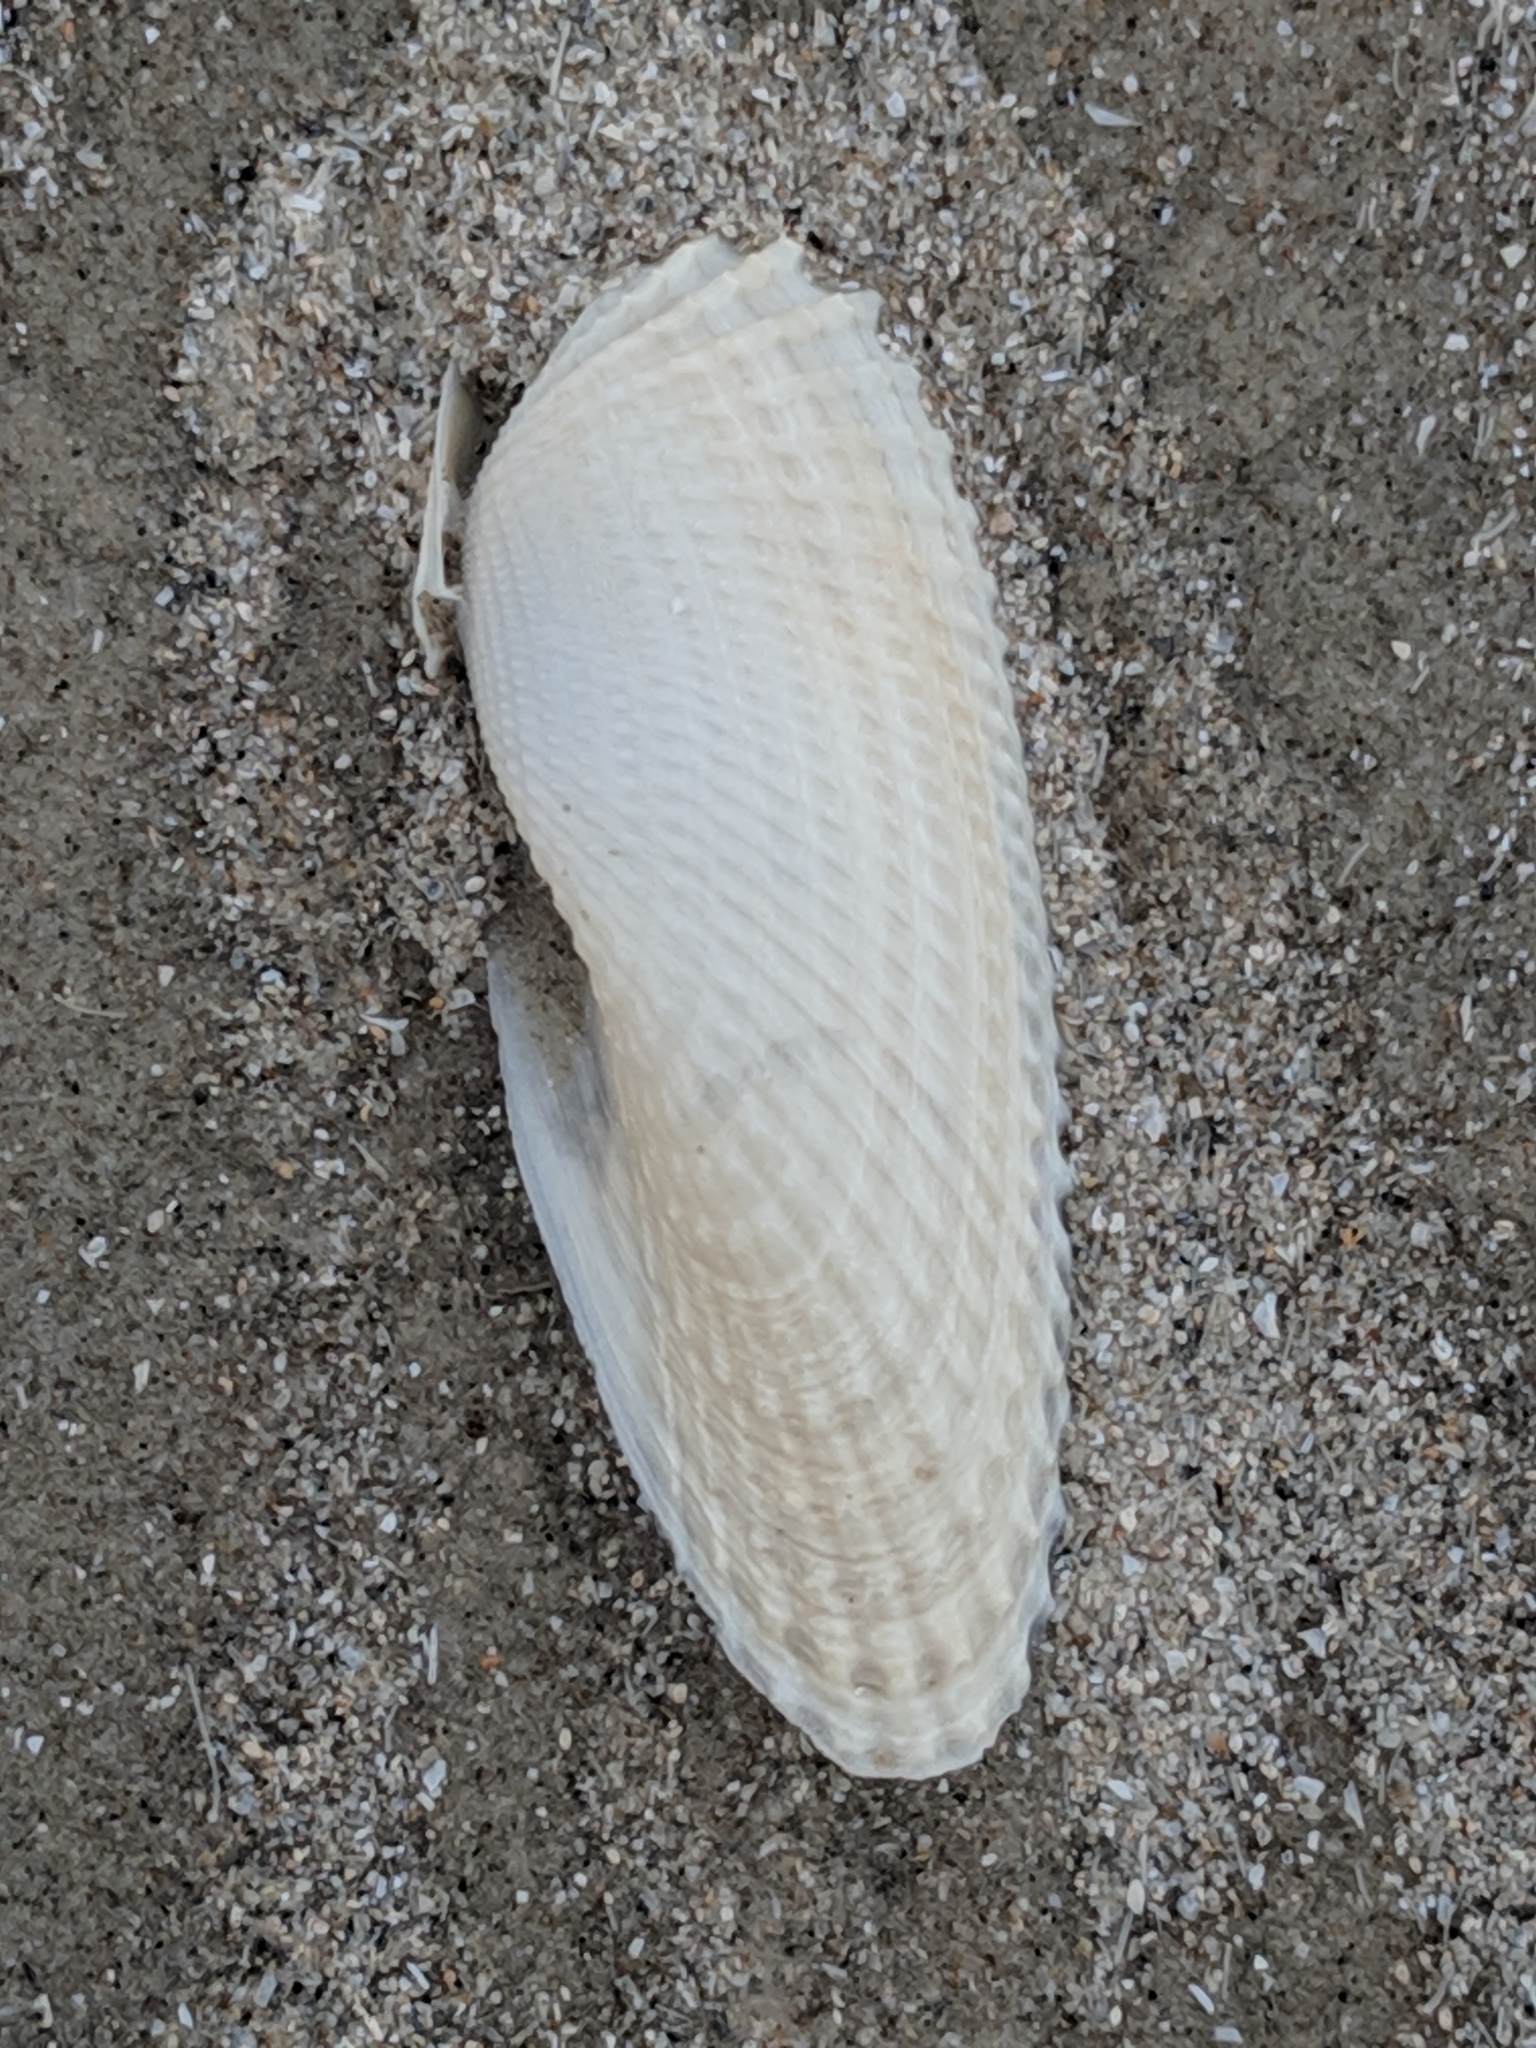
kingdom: Animalia
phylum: Mollusca
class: Bivalvia
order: Myida
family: Pholadidae
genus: Cyrtopleura
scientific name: Cyrtopleura costata
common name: Angel wing
